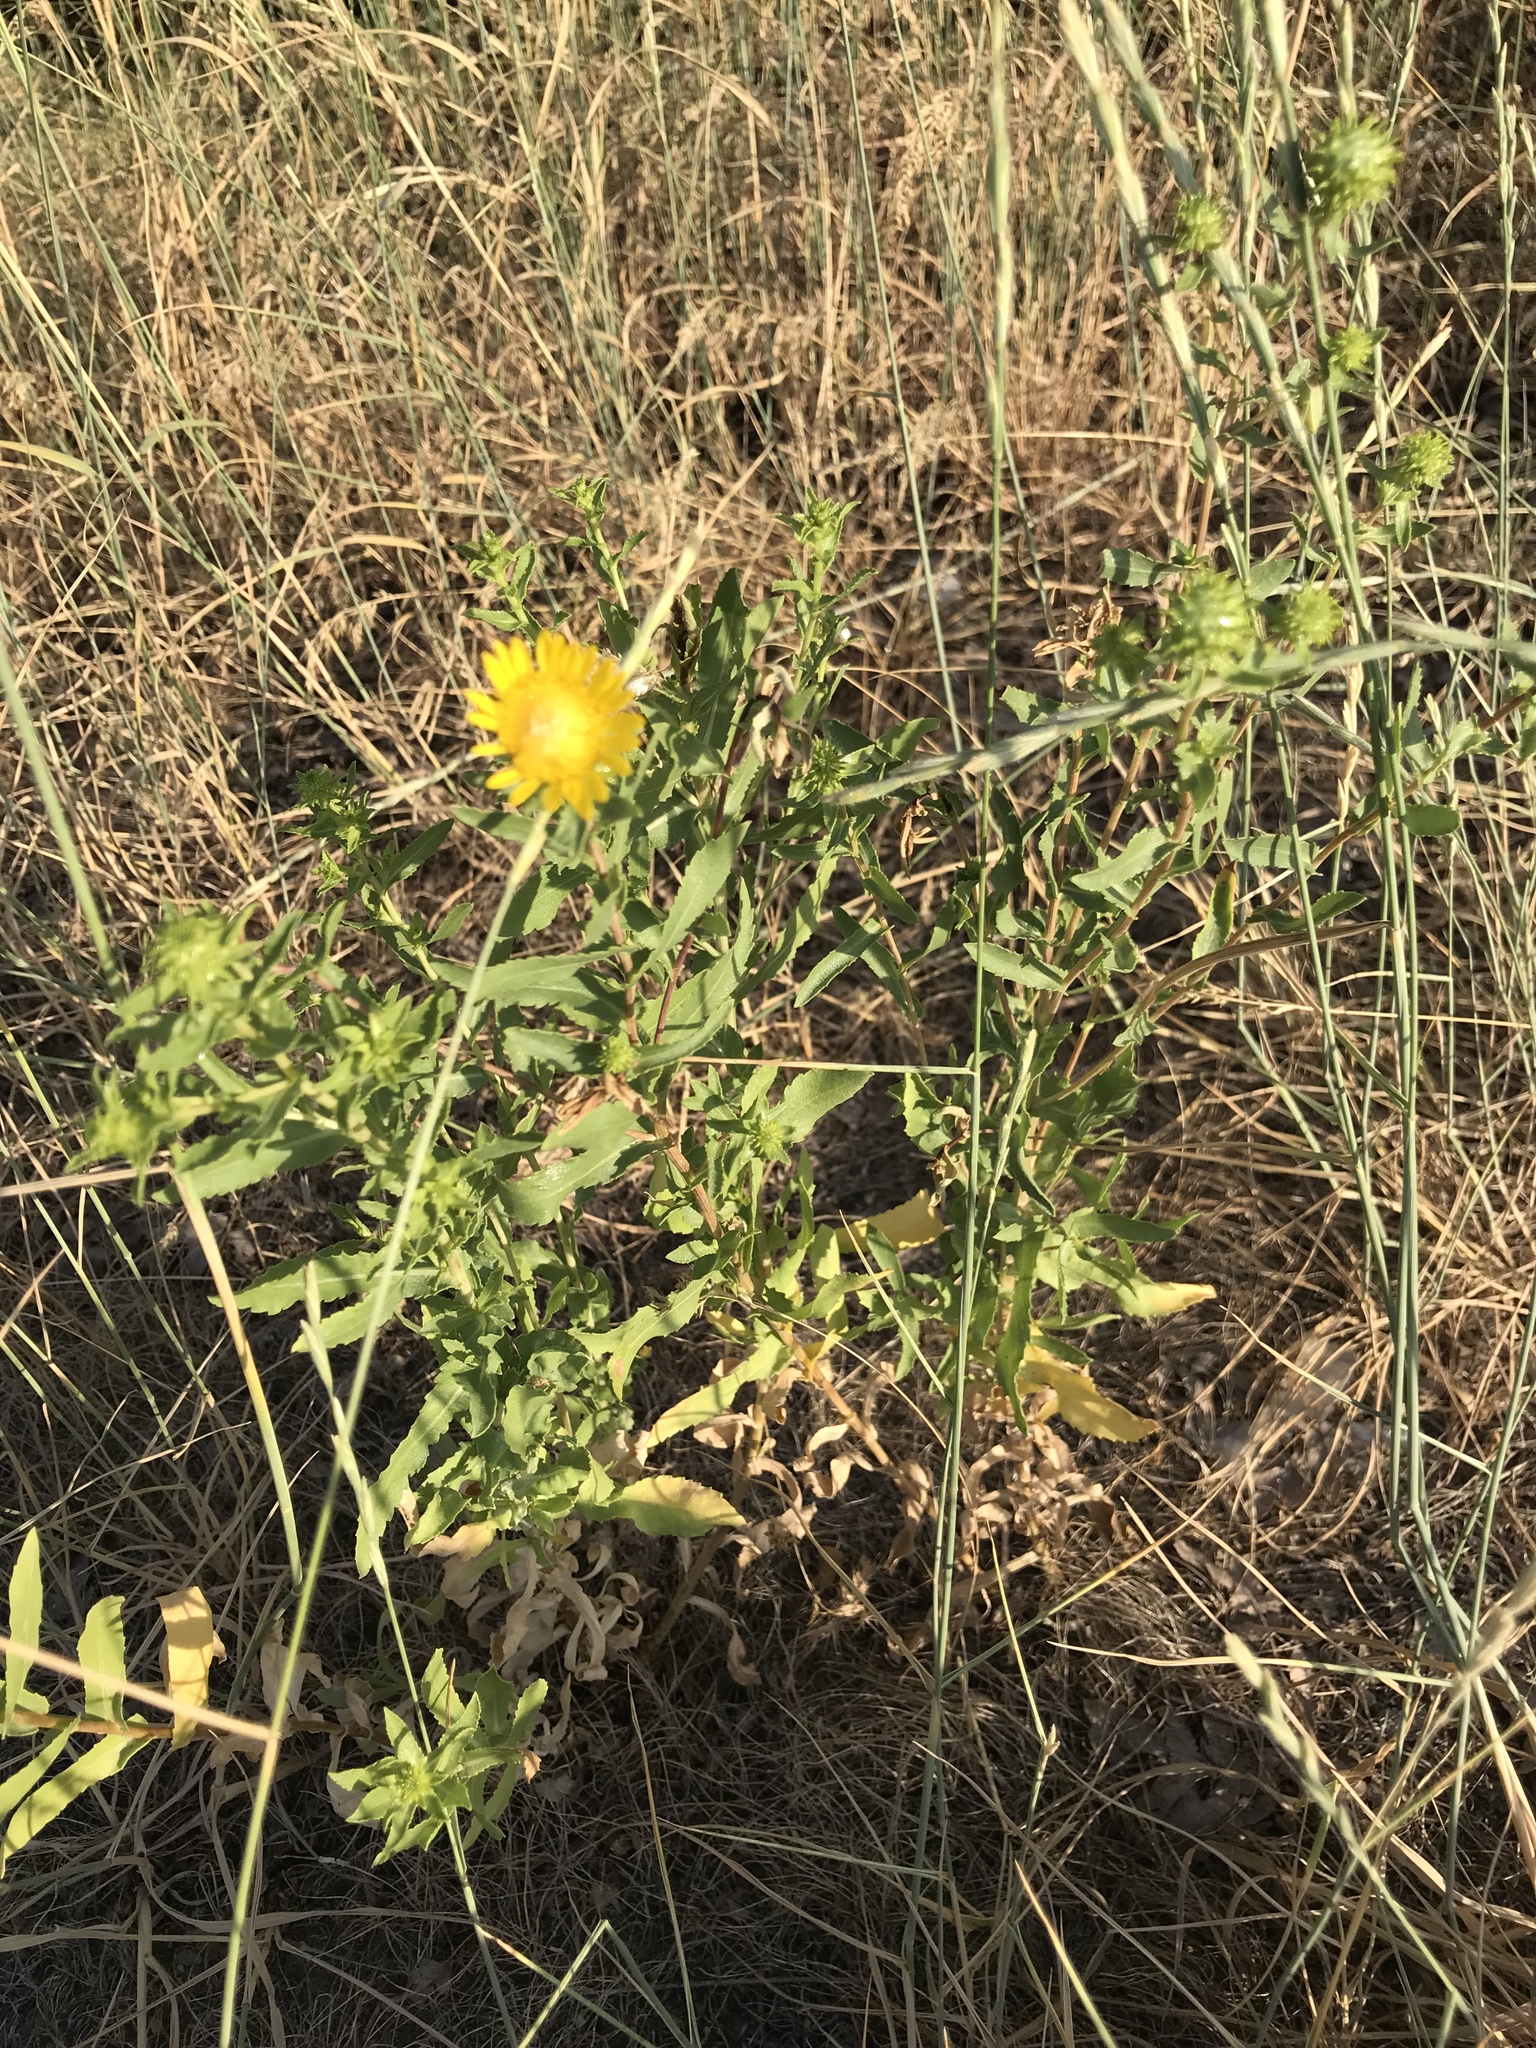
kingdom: Plantae
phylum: Tracheophyta
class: Magnoliopsida
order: Asterales
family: Asteraceae
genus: Grindelia
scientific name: Grindelia squarrosa
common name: Curly-cup gumweed
